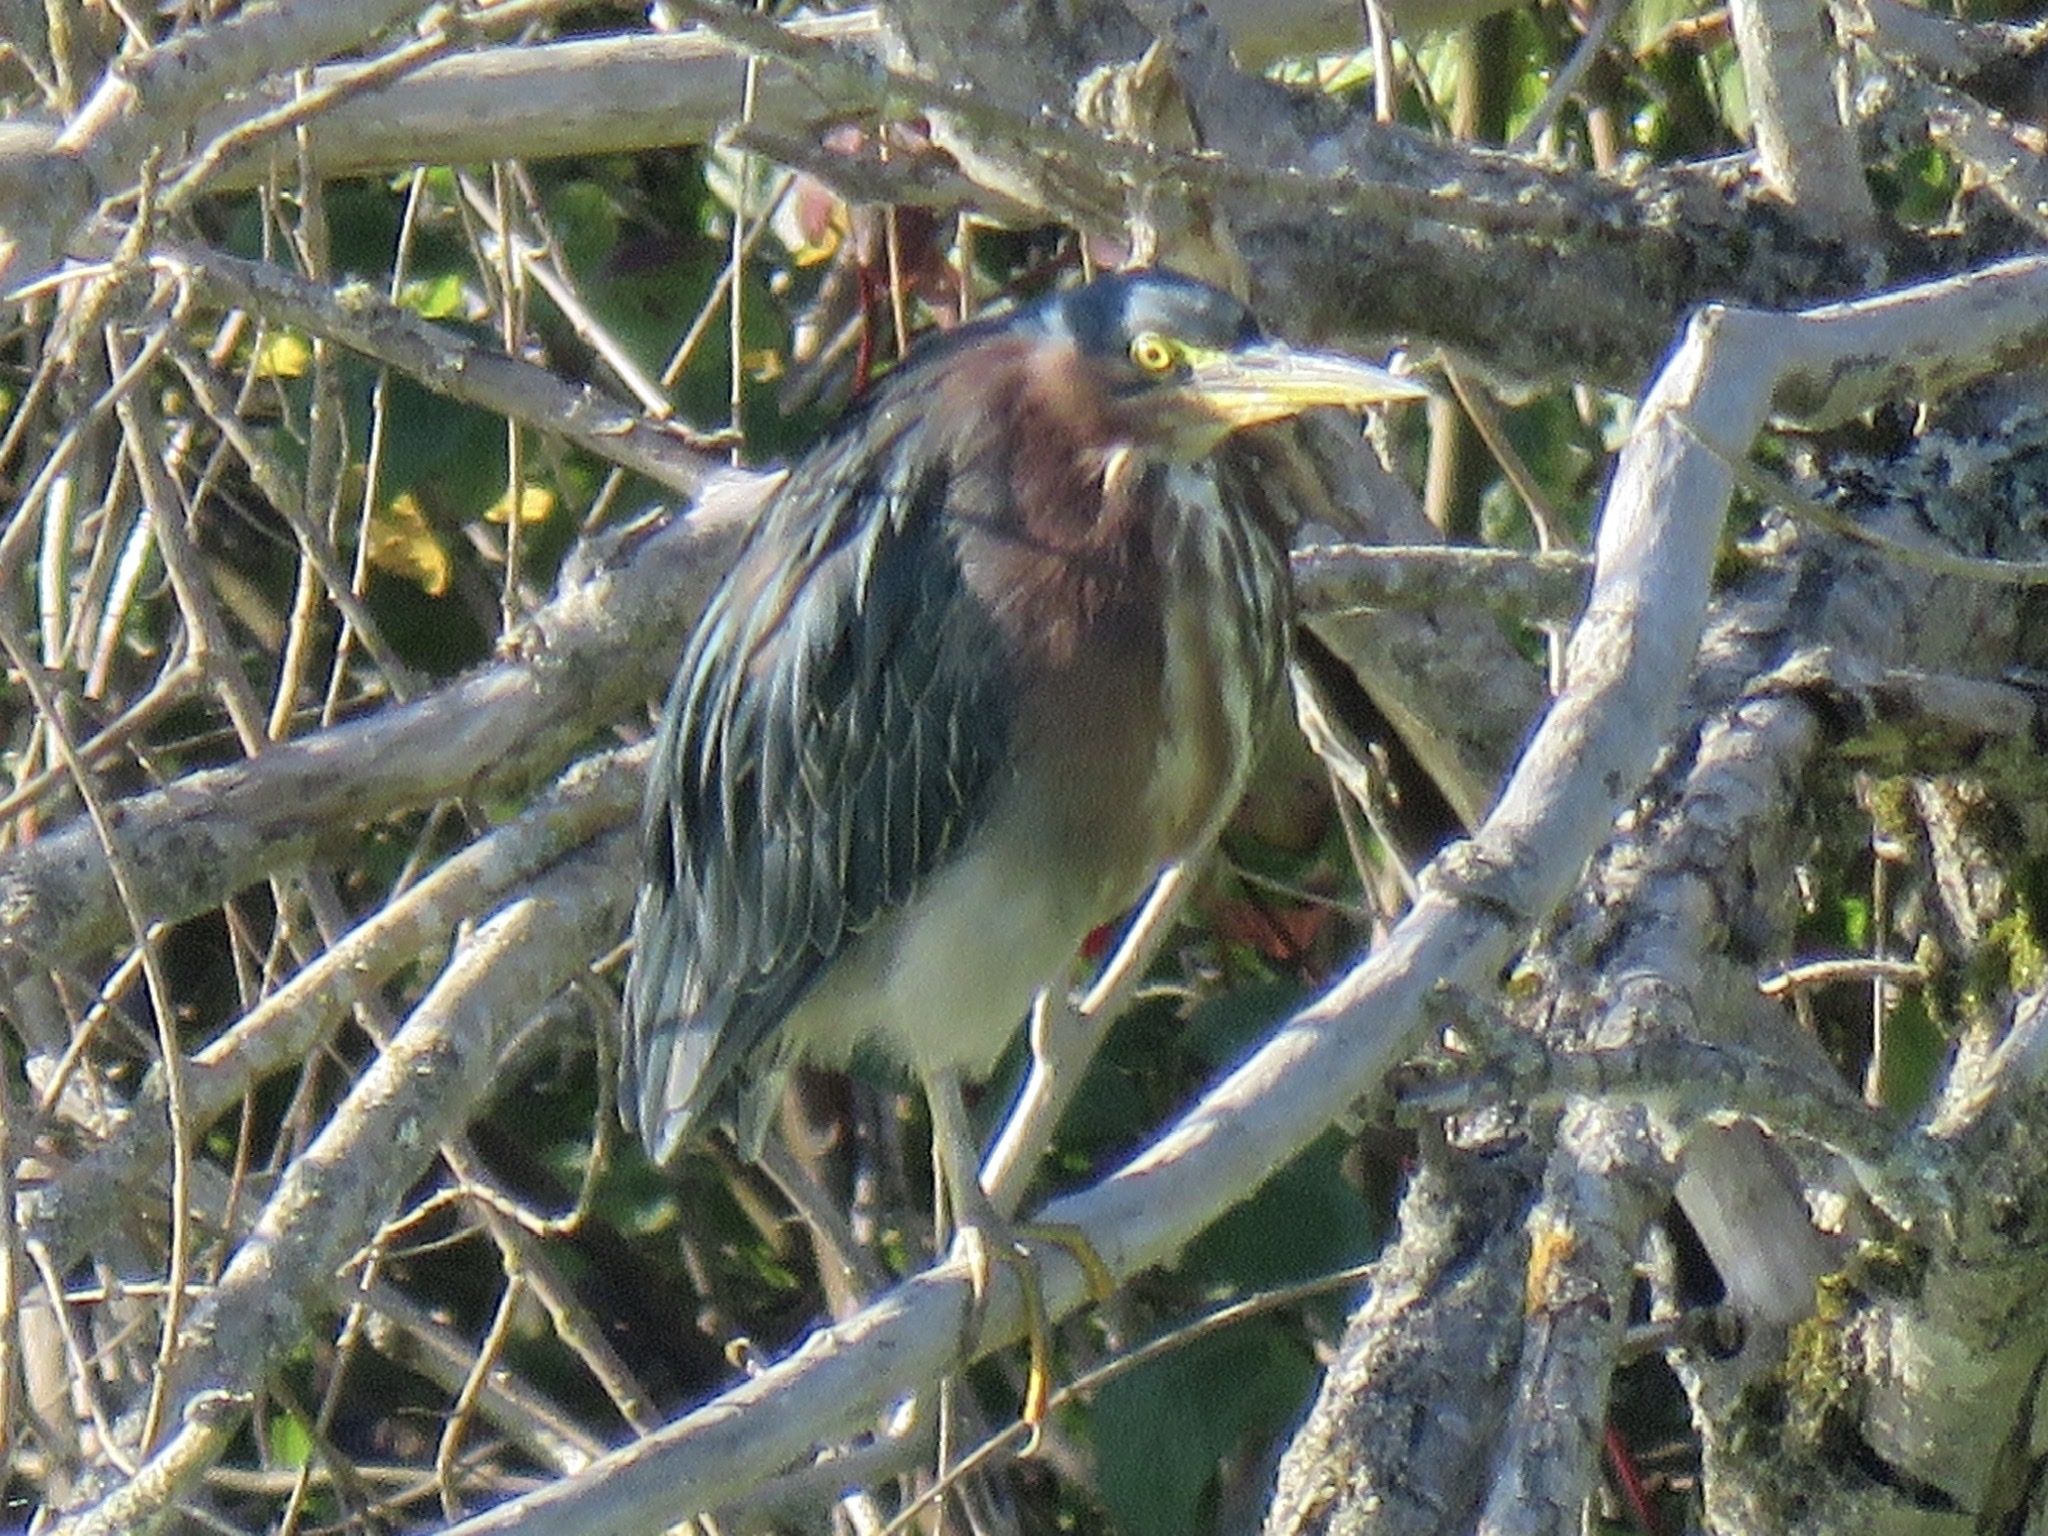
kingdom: Animalia
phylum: Chordata
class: Aves
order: Pelecaniformes
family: Ardeidae
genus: Butorides
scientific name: Butorides virescens
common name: Green heron
